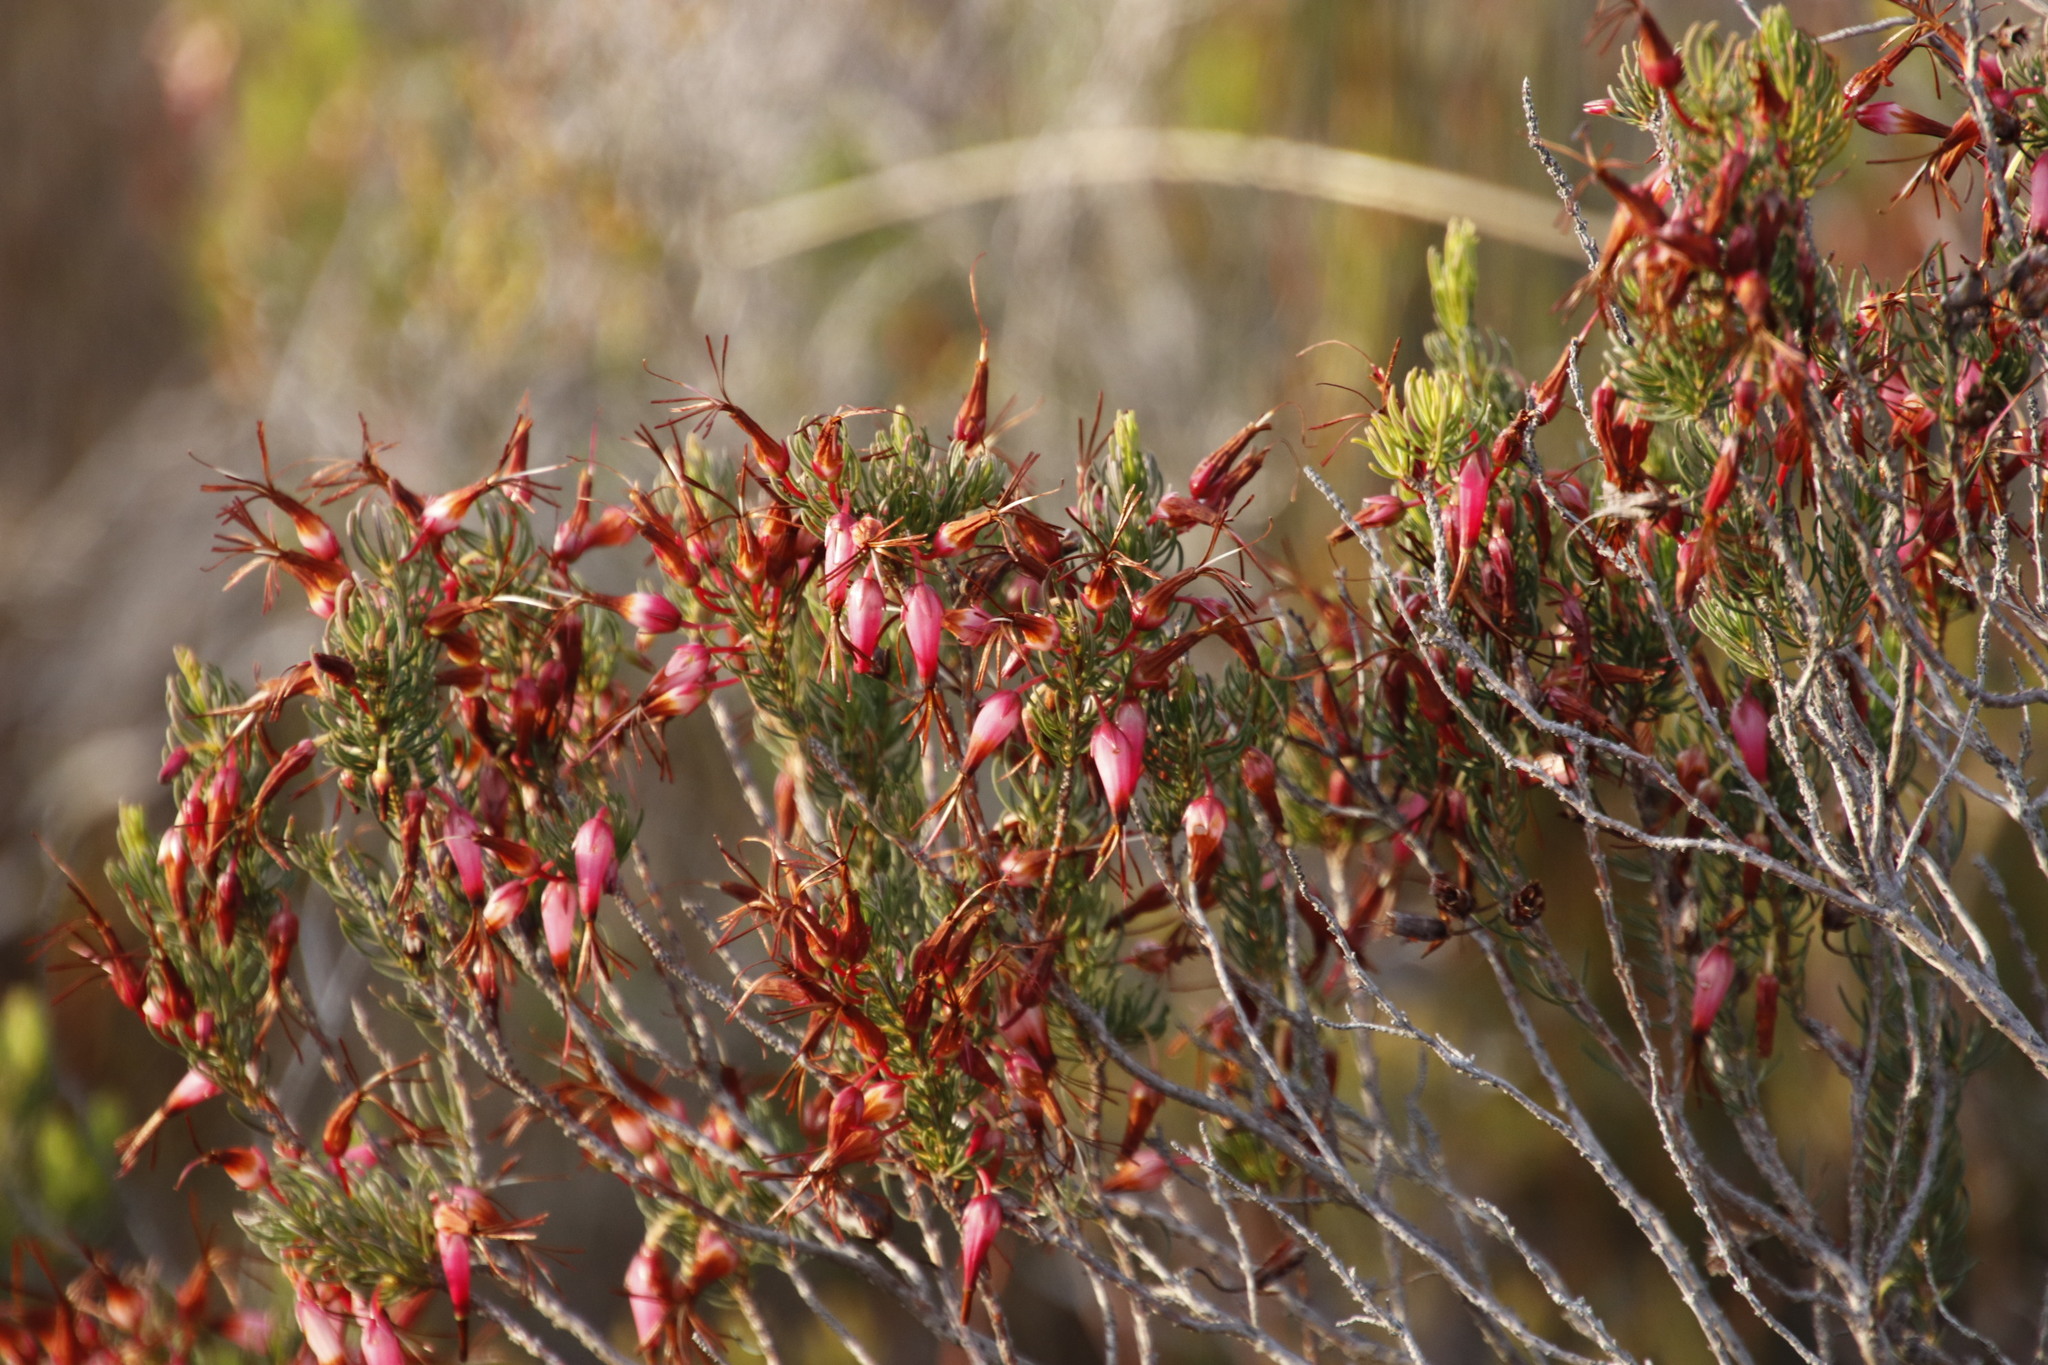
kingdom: Plantae
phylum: Tracheophyta
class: Magnoliopsida
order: Ericales
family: Ericaceae
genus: Erica
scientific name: Erica plukenetii
